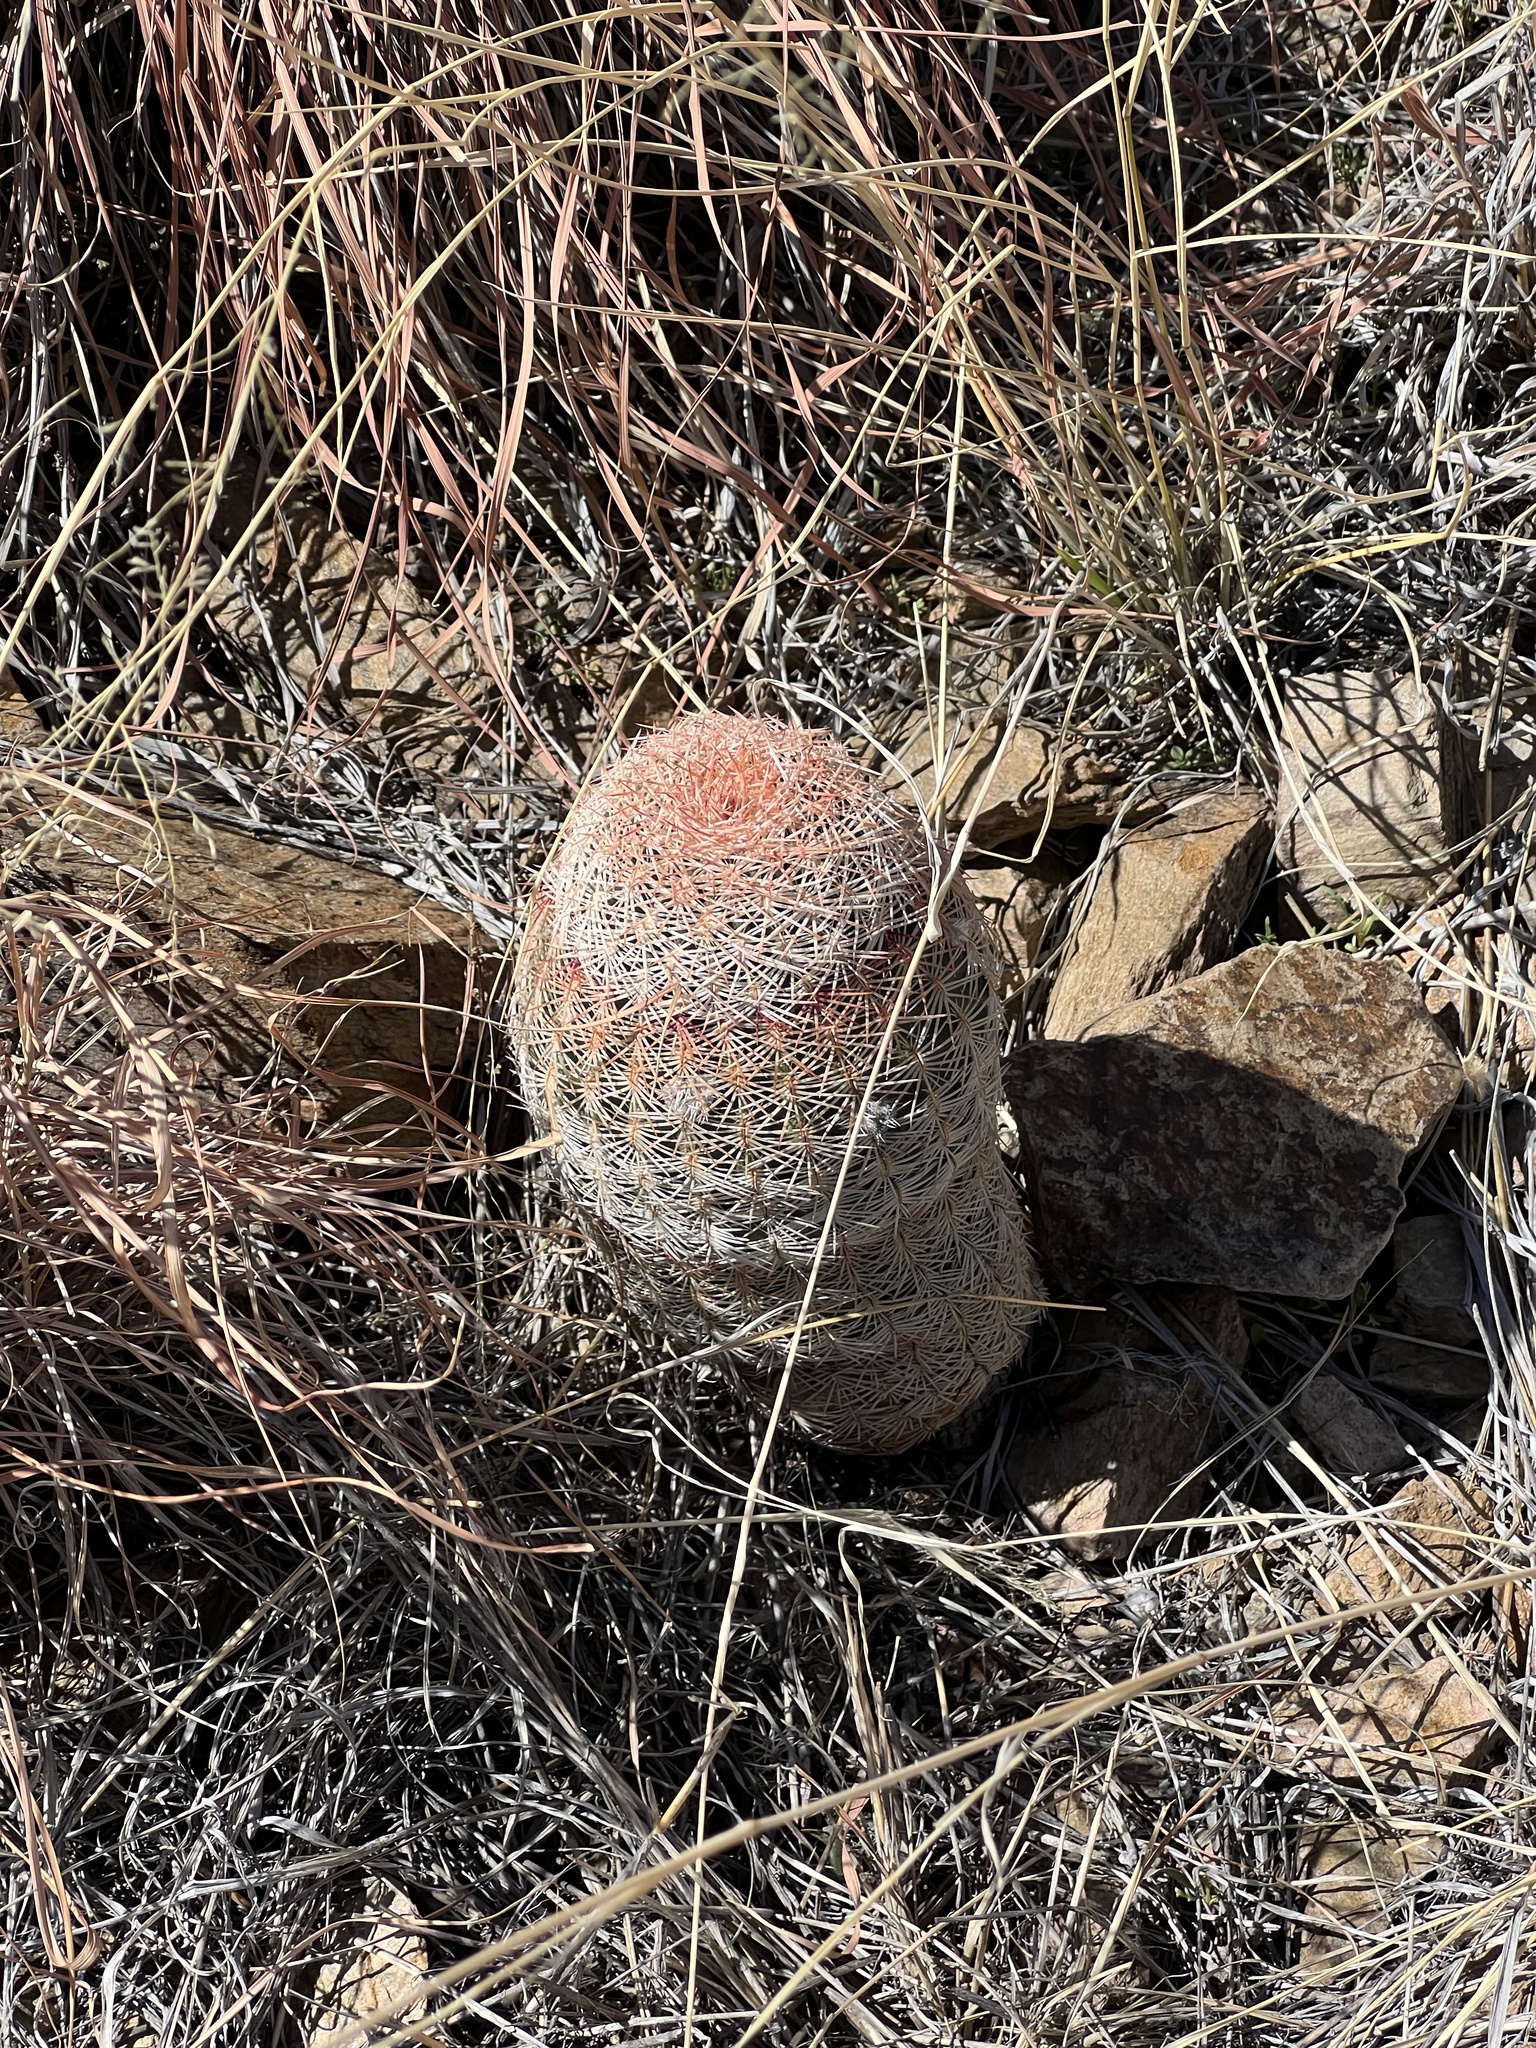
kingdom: Plantae
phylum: Tracheophyta
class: Magnoliopsida
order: Caryophyllales
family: Cactaceae
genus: Echinocereus
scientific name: Echinocereus rigidissimus
